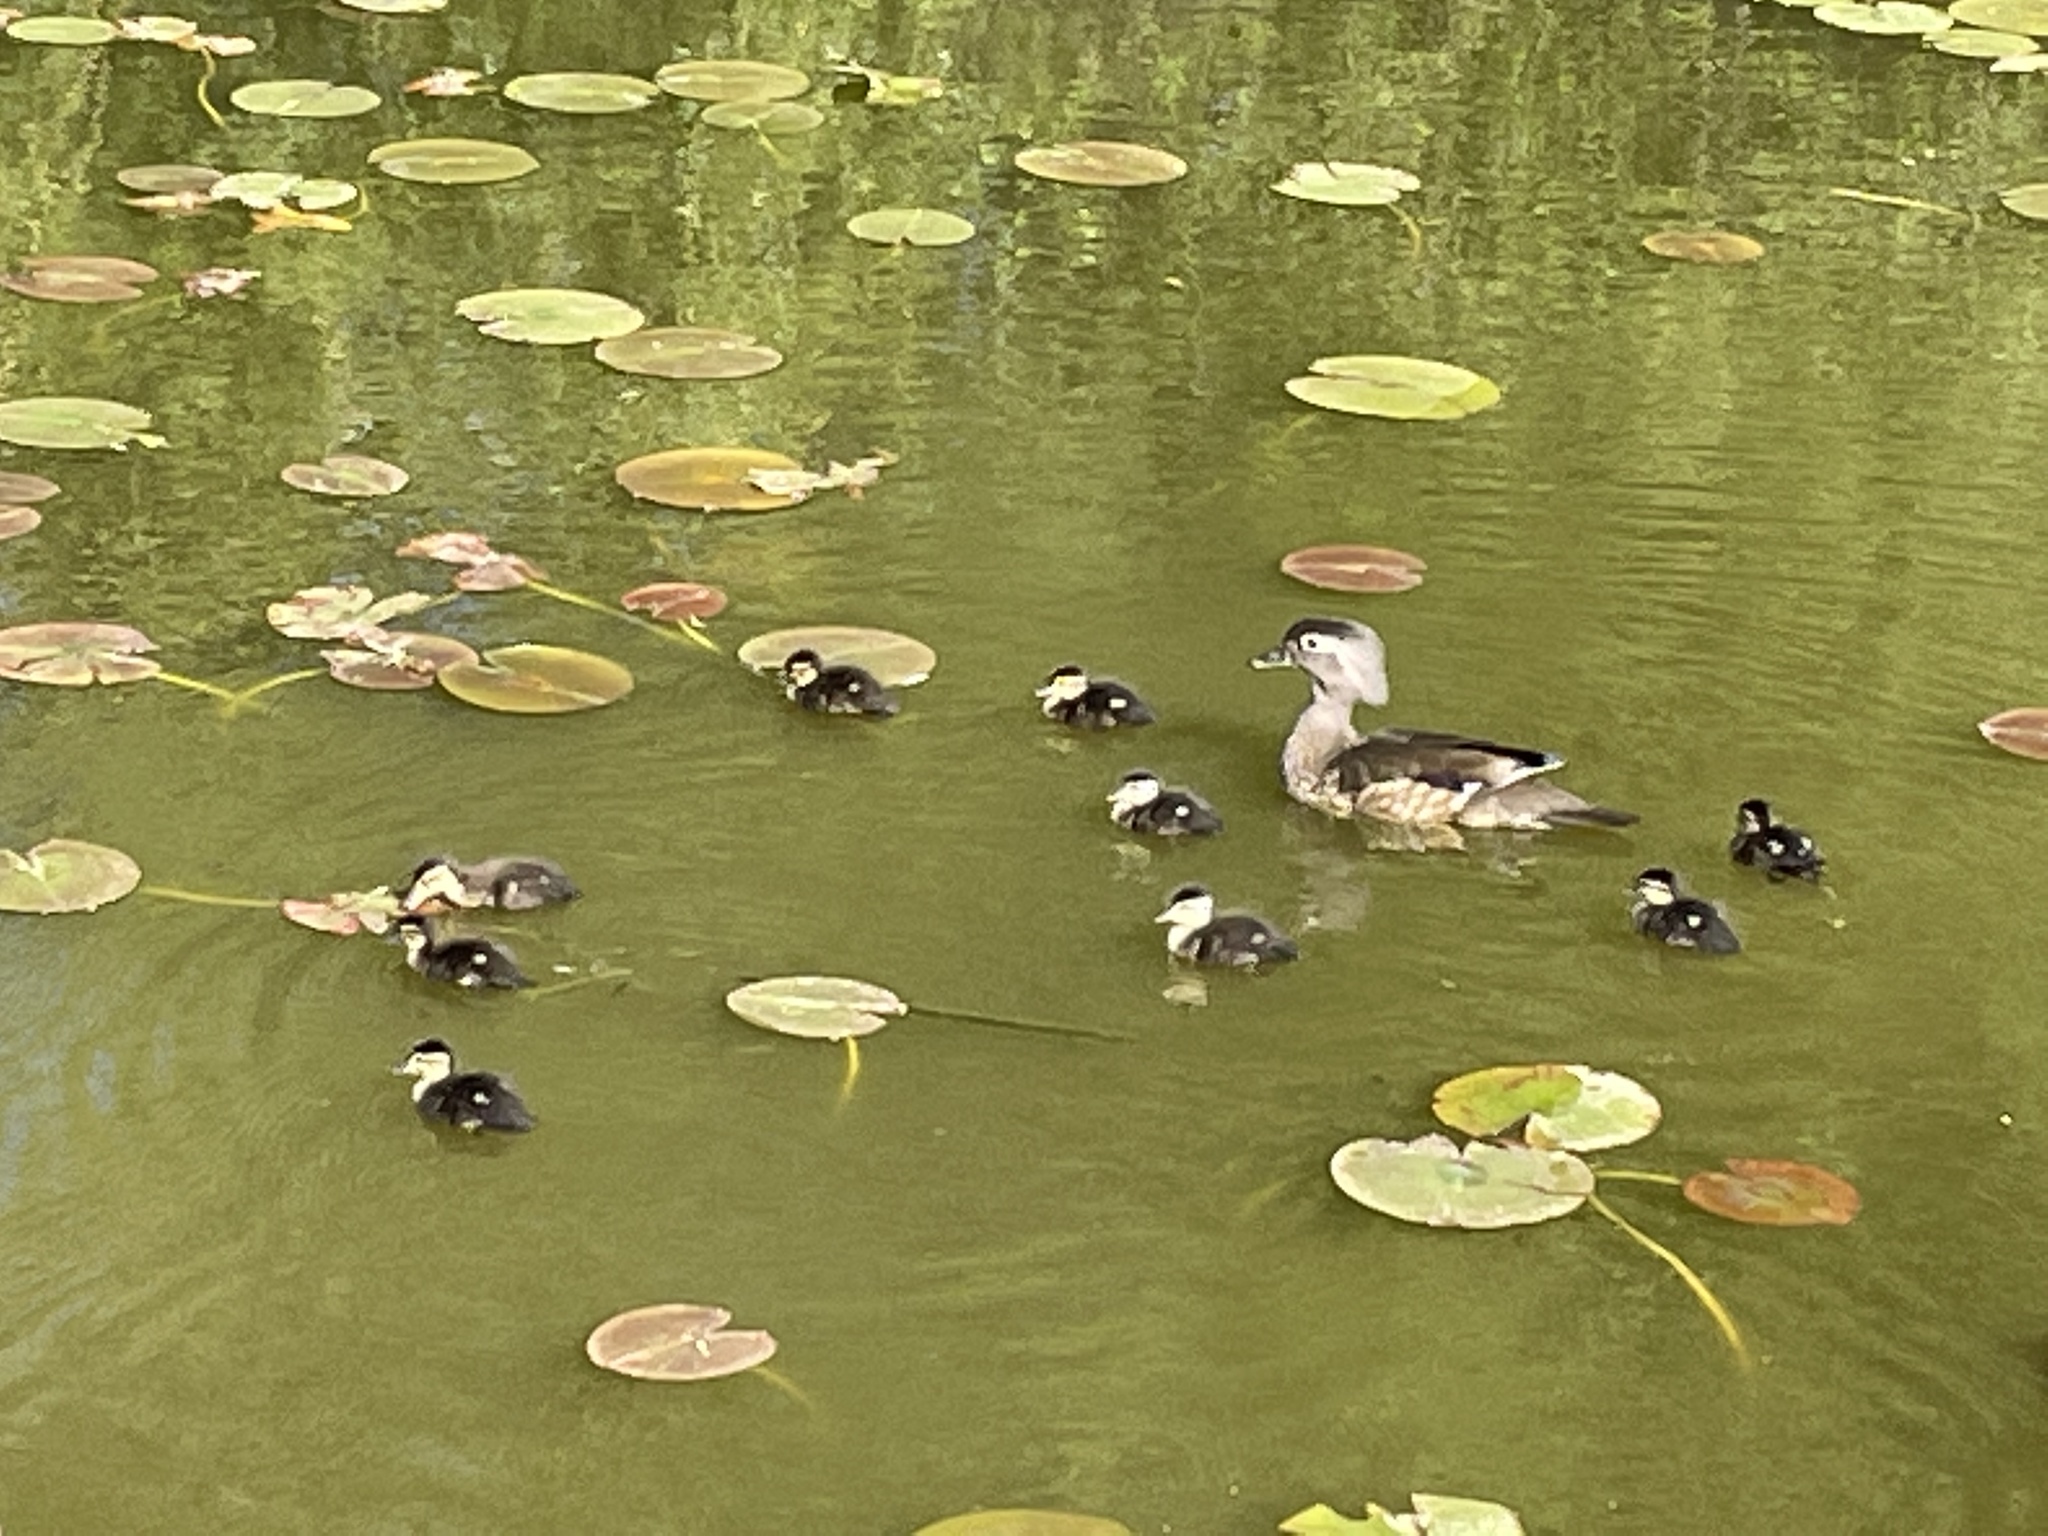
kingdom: Animalia
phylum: Chordata
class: Aves
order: Anseriformes
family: Anatidae
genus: Aix
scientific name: Aix sponsa
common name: Wood duck
